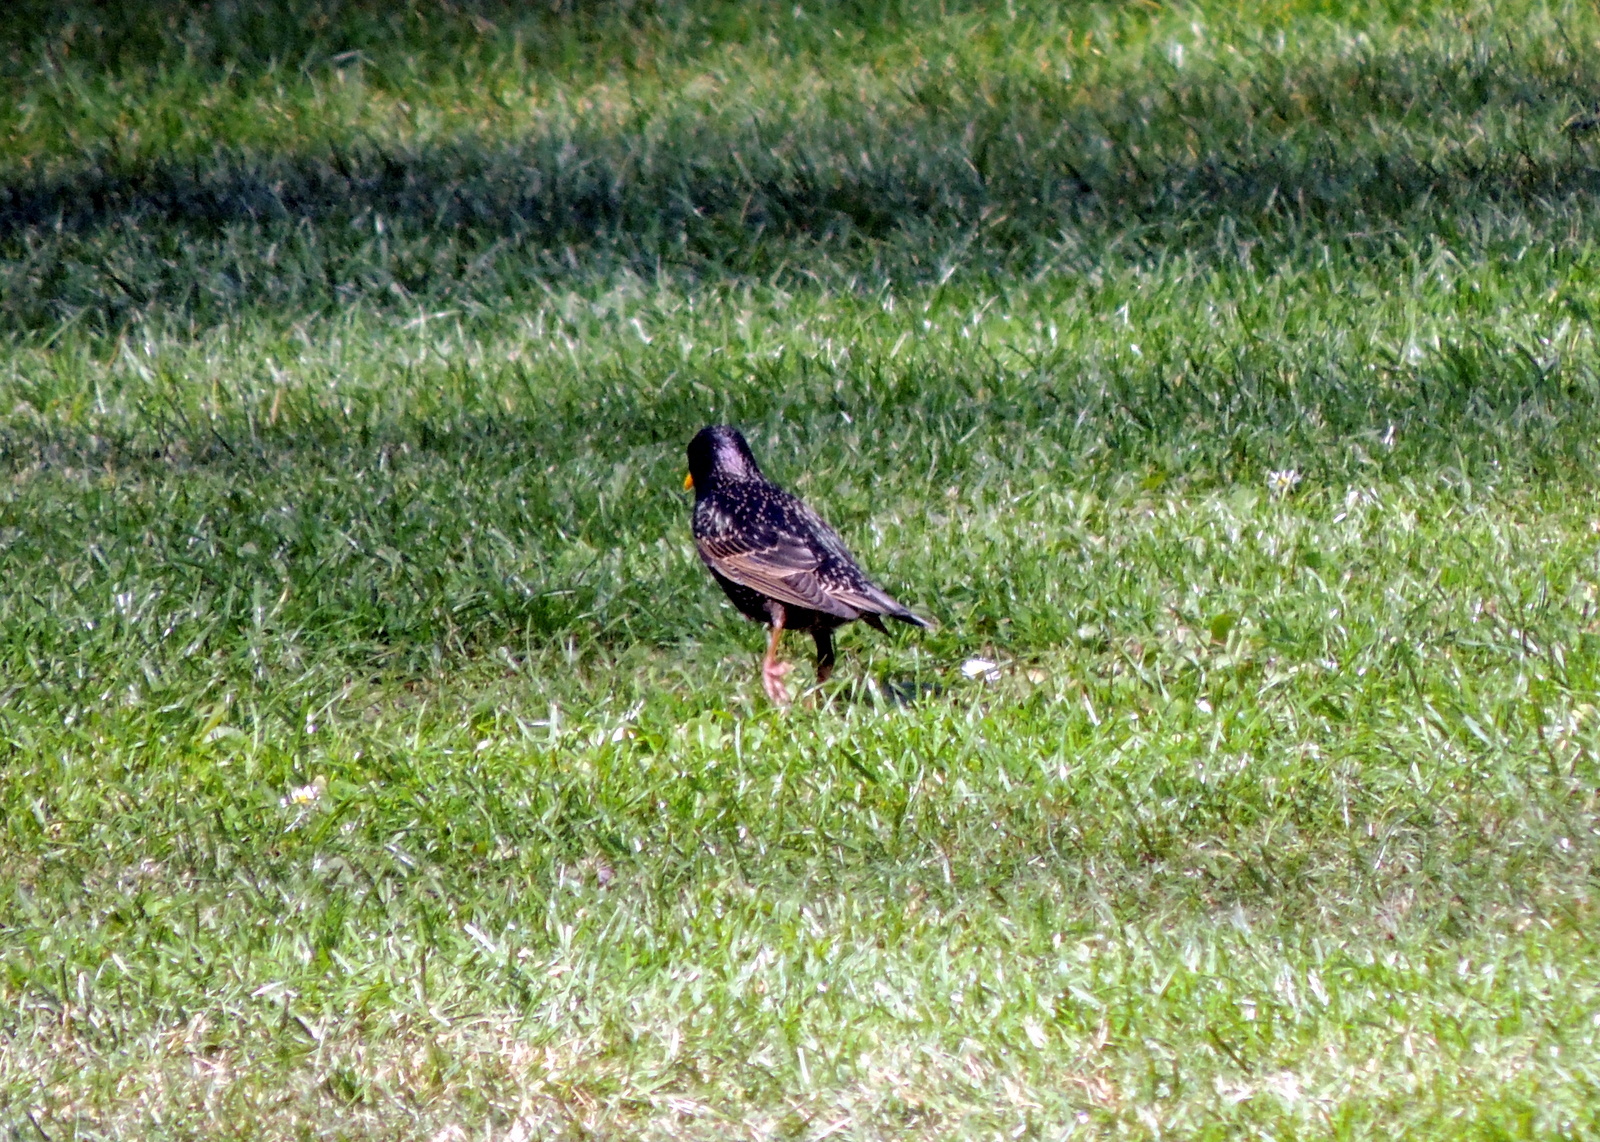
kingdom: Animalia
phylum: Chordata
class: Aves
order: Passeriformes
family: Sturnidae
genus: Sturnus
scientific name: Sturnus vulgaris
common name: Common starling
